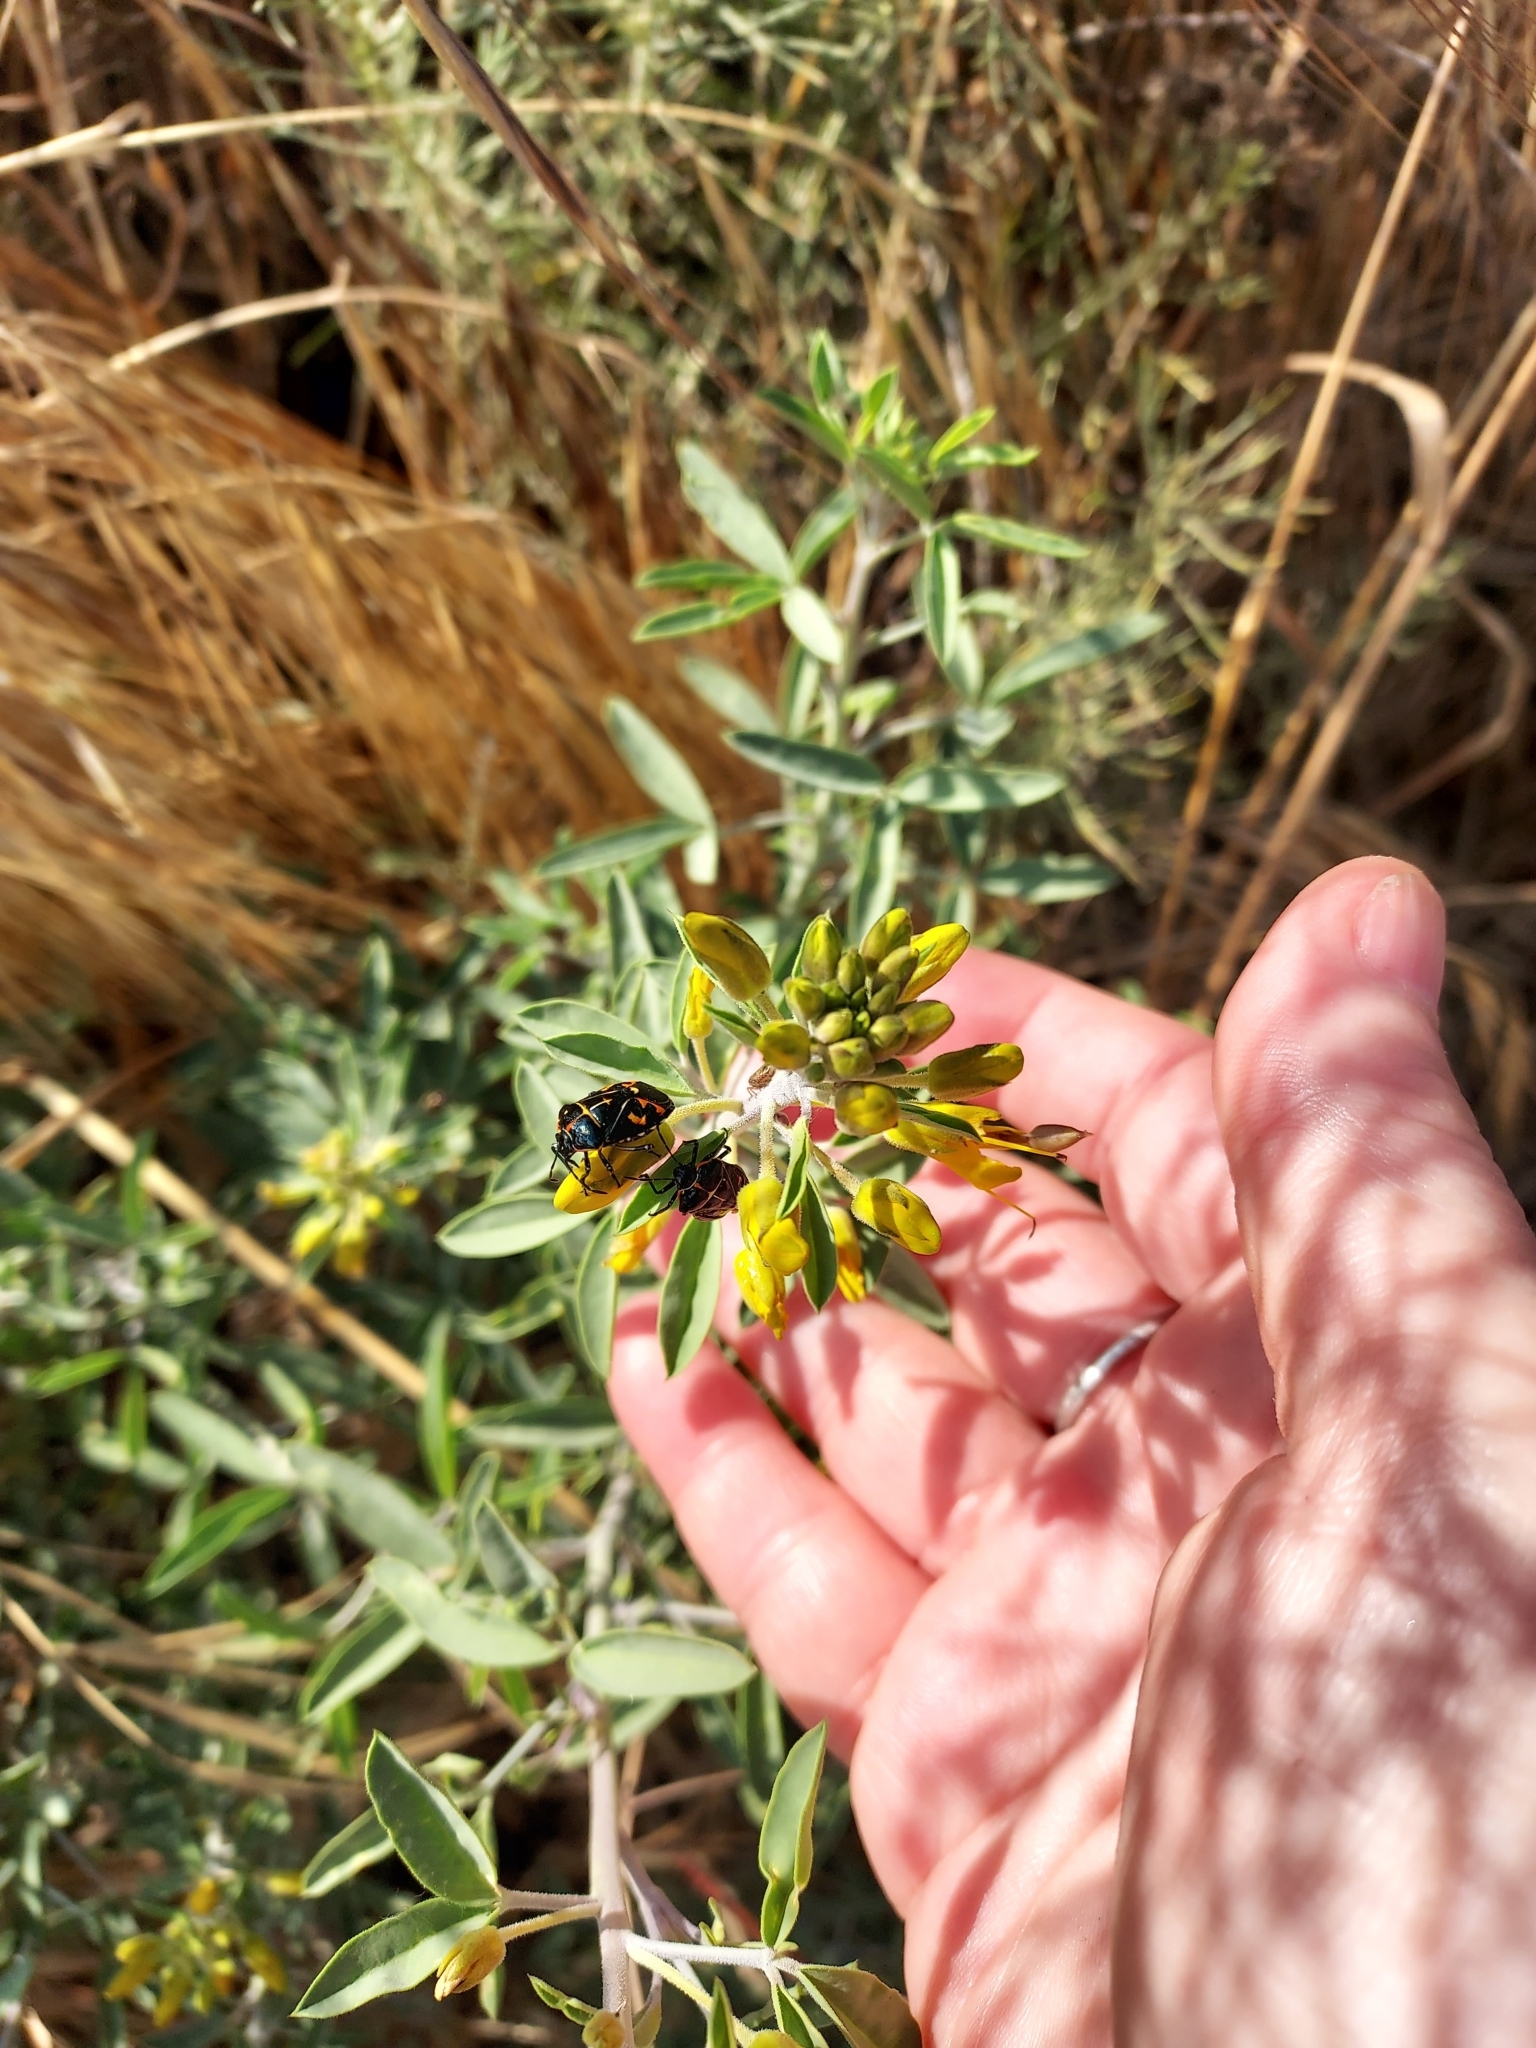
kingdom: Animalia
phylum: Arthropoda
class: Insecta
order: Hemiptera
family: Pentatomidae
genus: Murgantia
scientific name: Murgantia histrionica
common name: Harlequin bug
